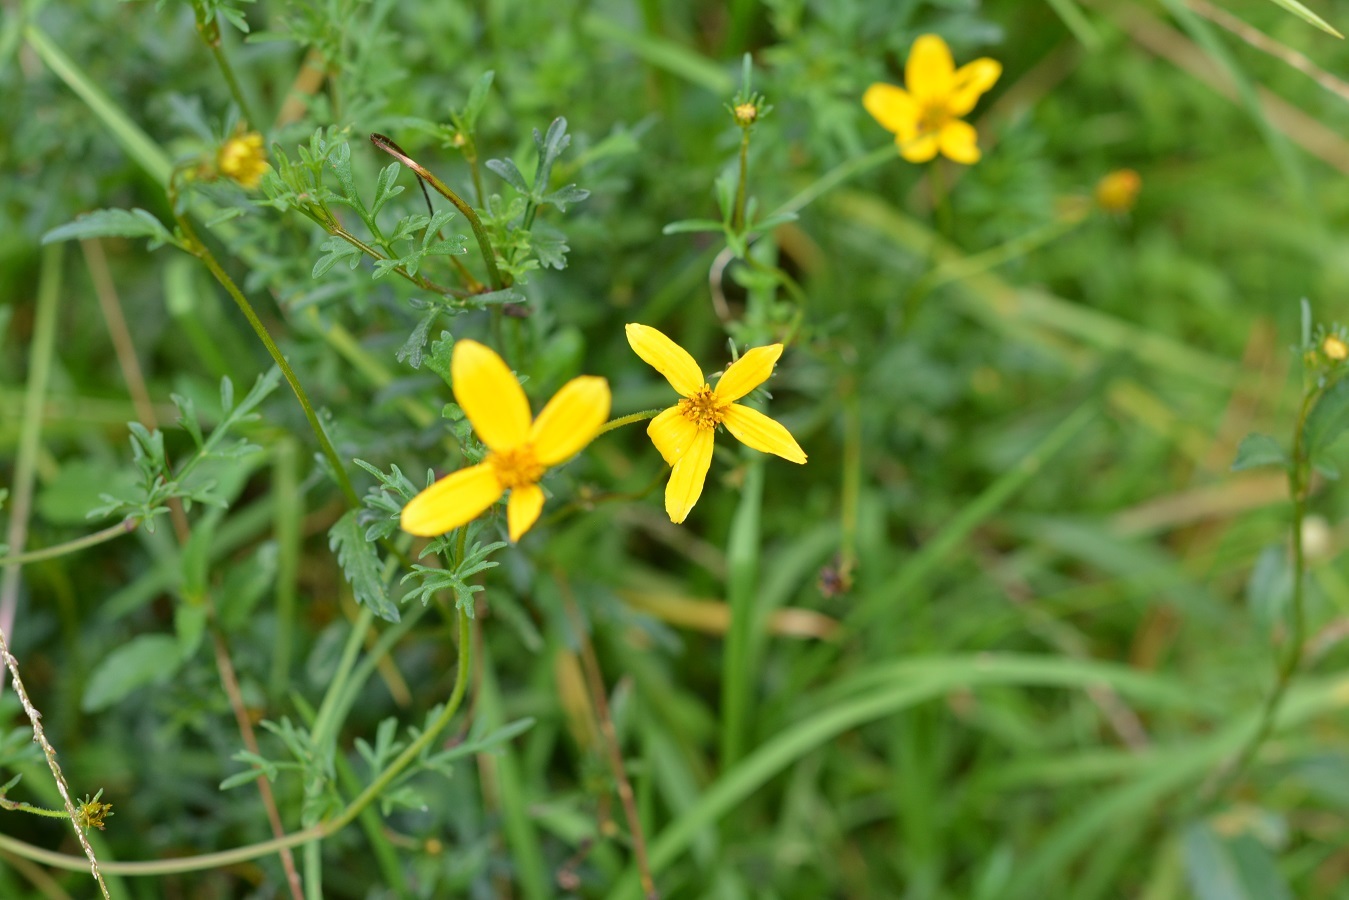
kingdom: Plantae
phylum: Tracheophyta
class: Magnoliopsida
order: Asterales
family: Asteraceae
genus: Bidens
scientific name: Bidens triplinervia
